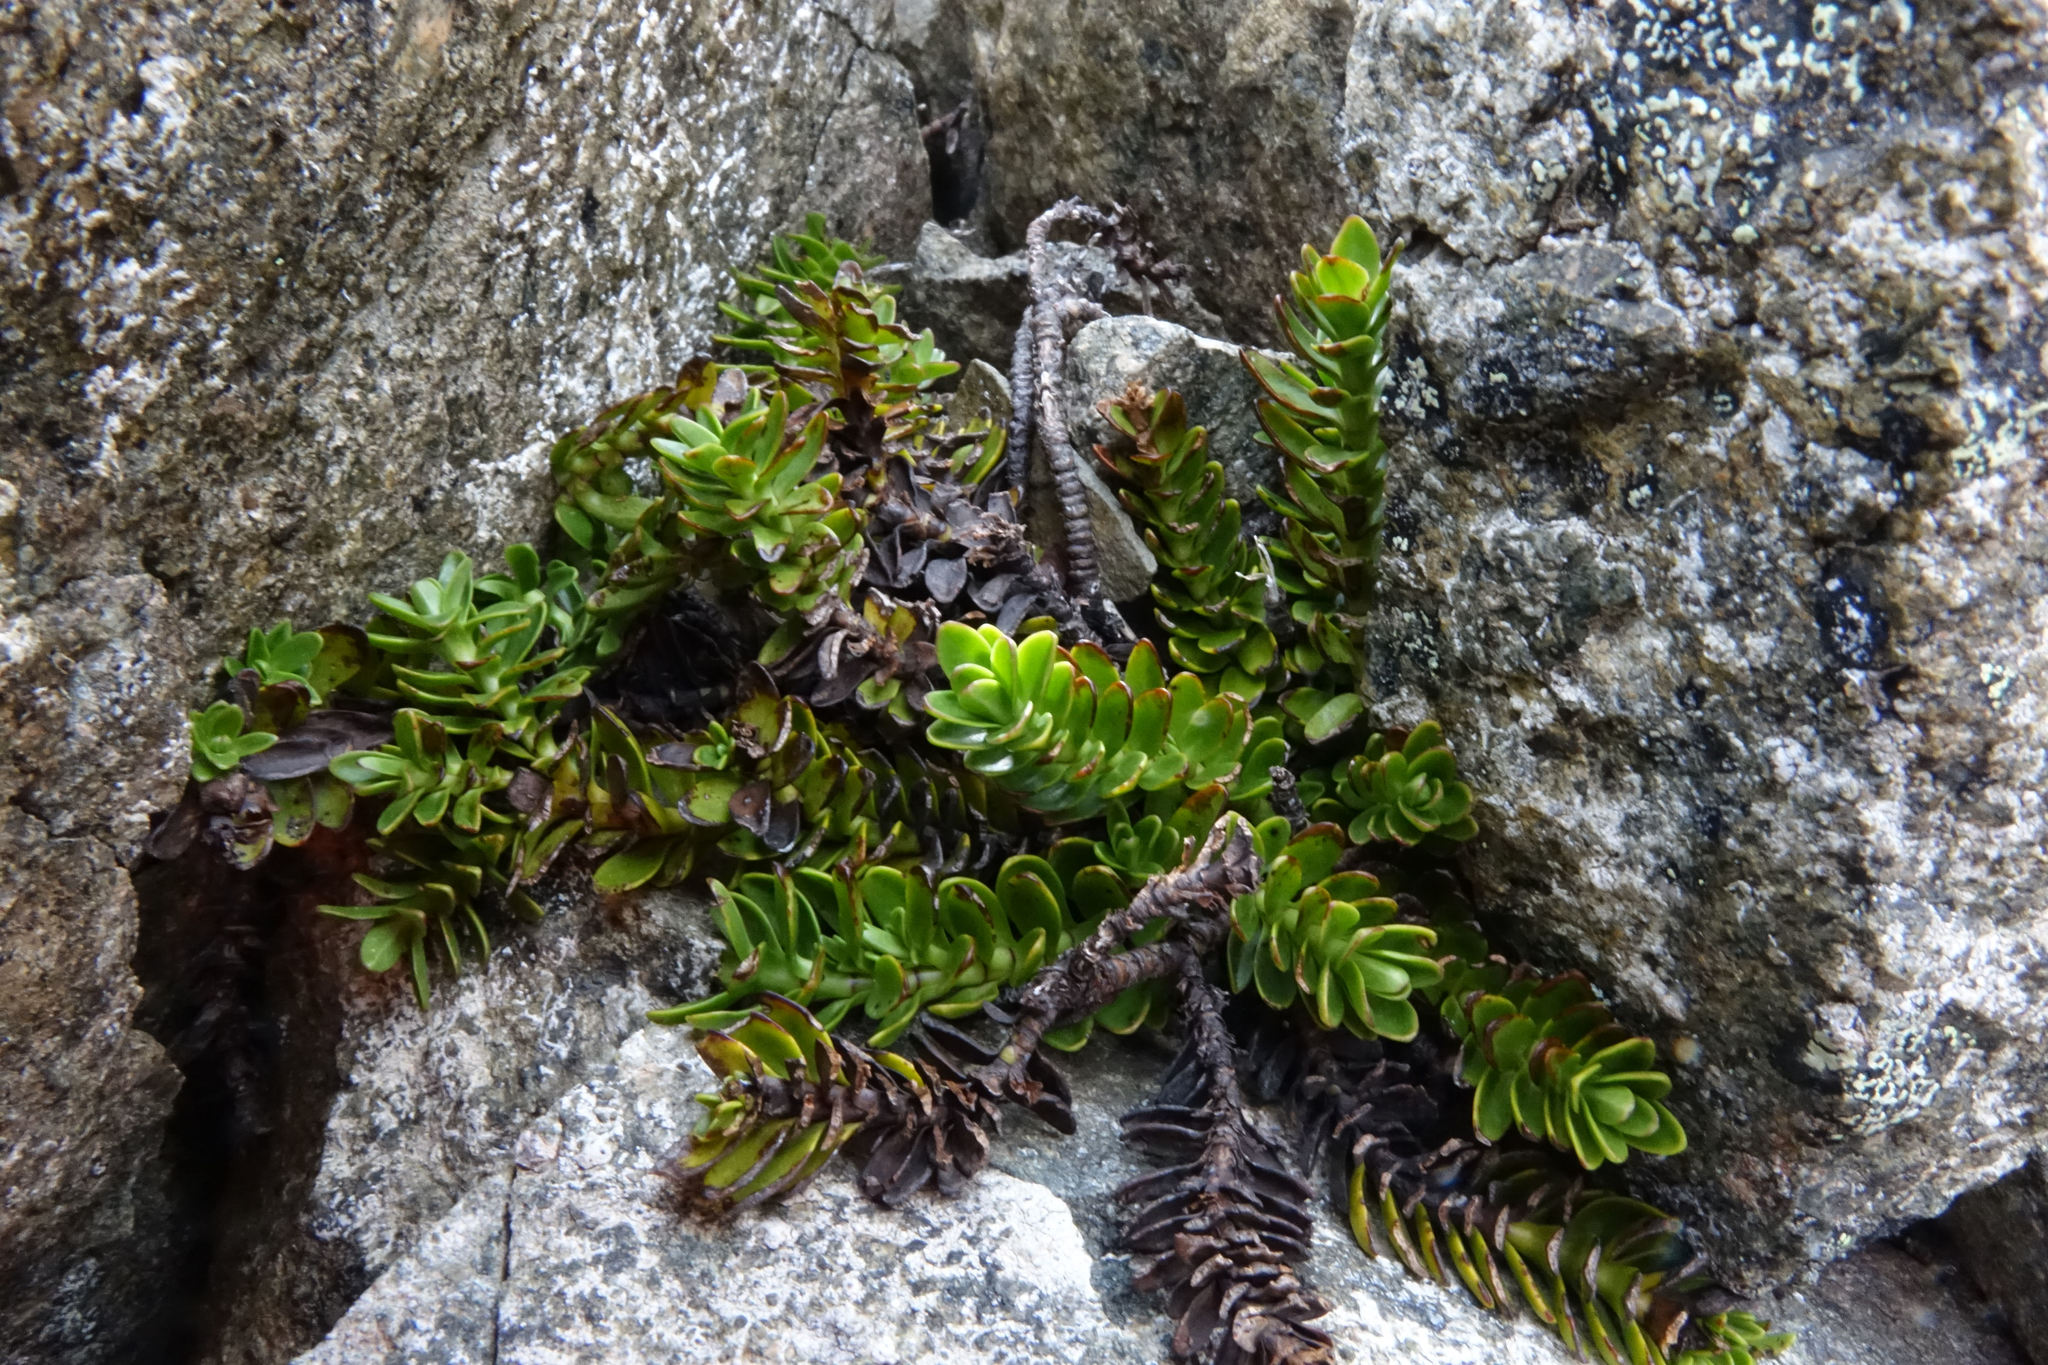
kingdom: Plantae
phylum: Tracheophyta
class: Magnoliopsida
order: Lamiales
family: Plantaginaceae
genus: Veronica
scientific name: Veronica petriei
